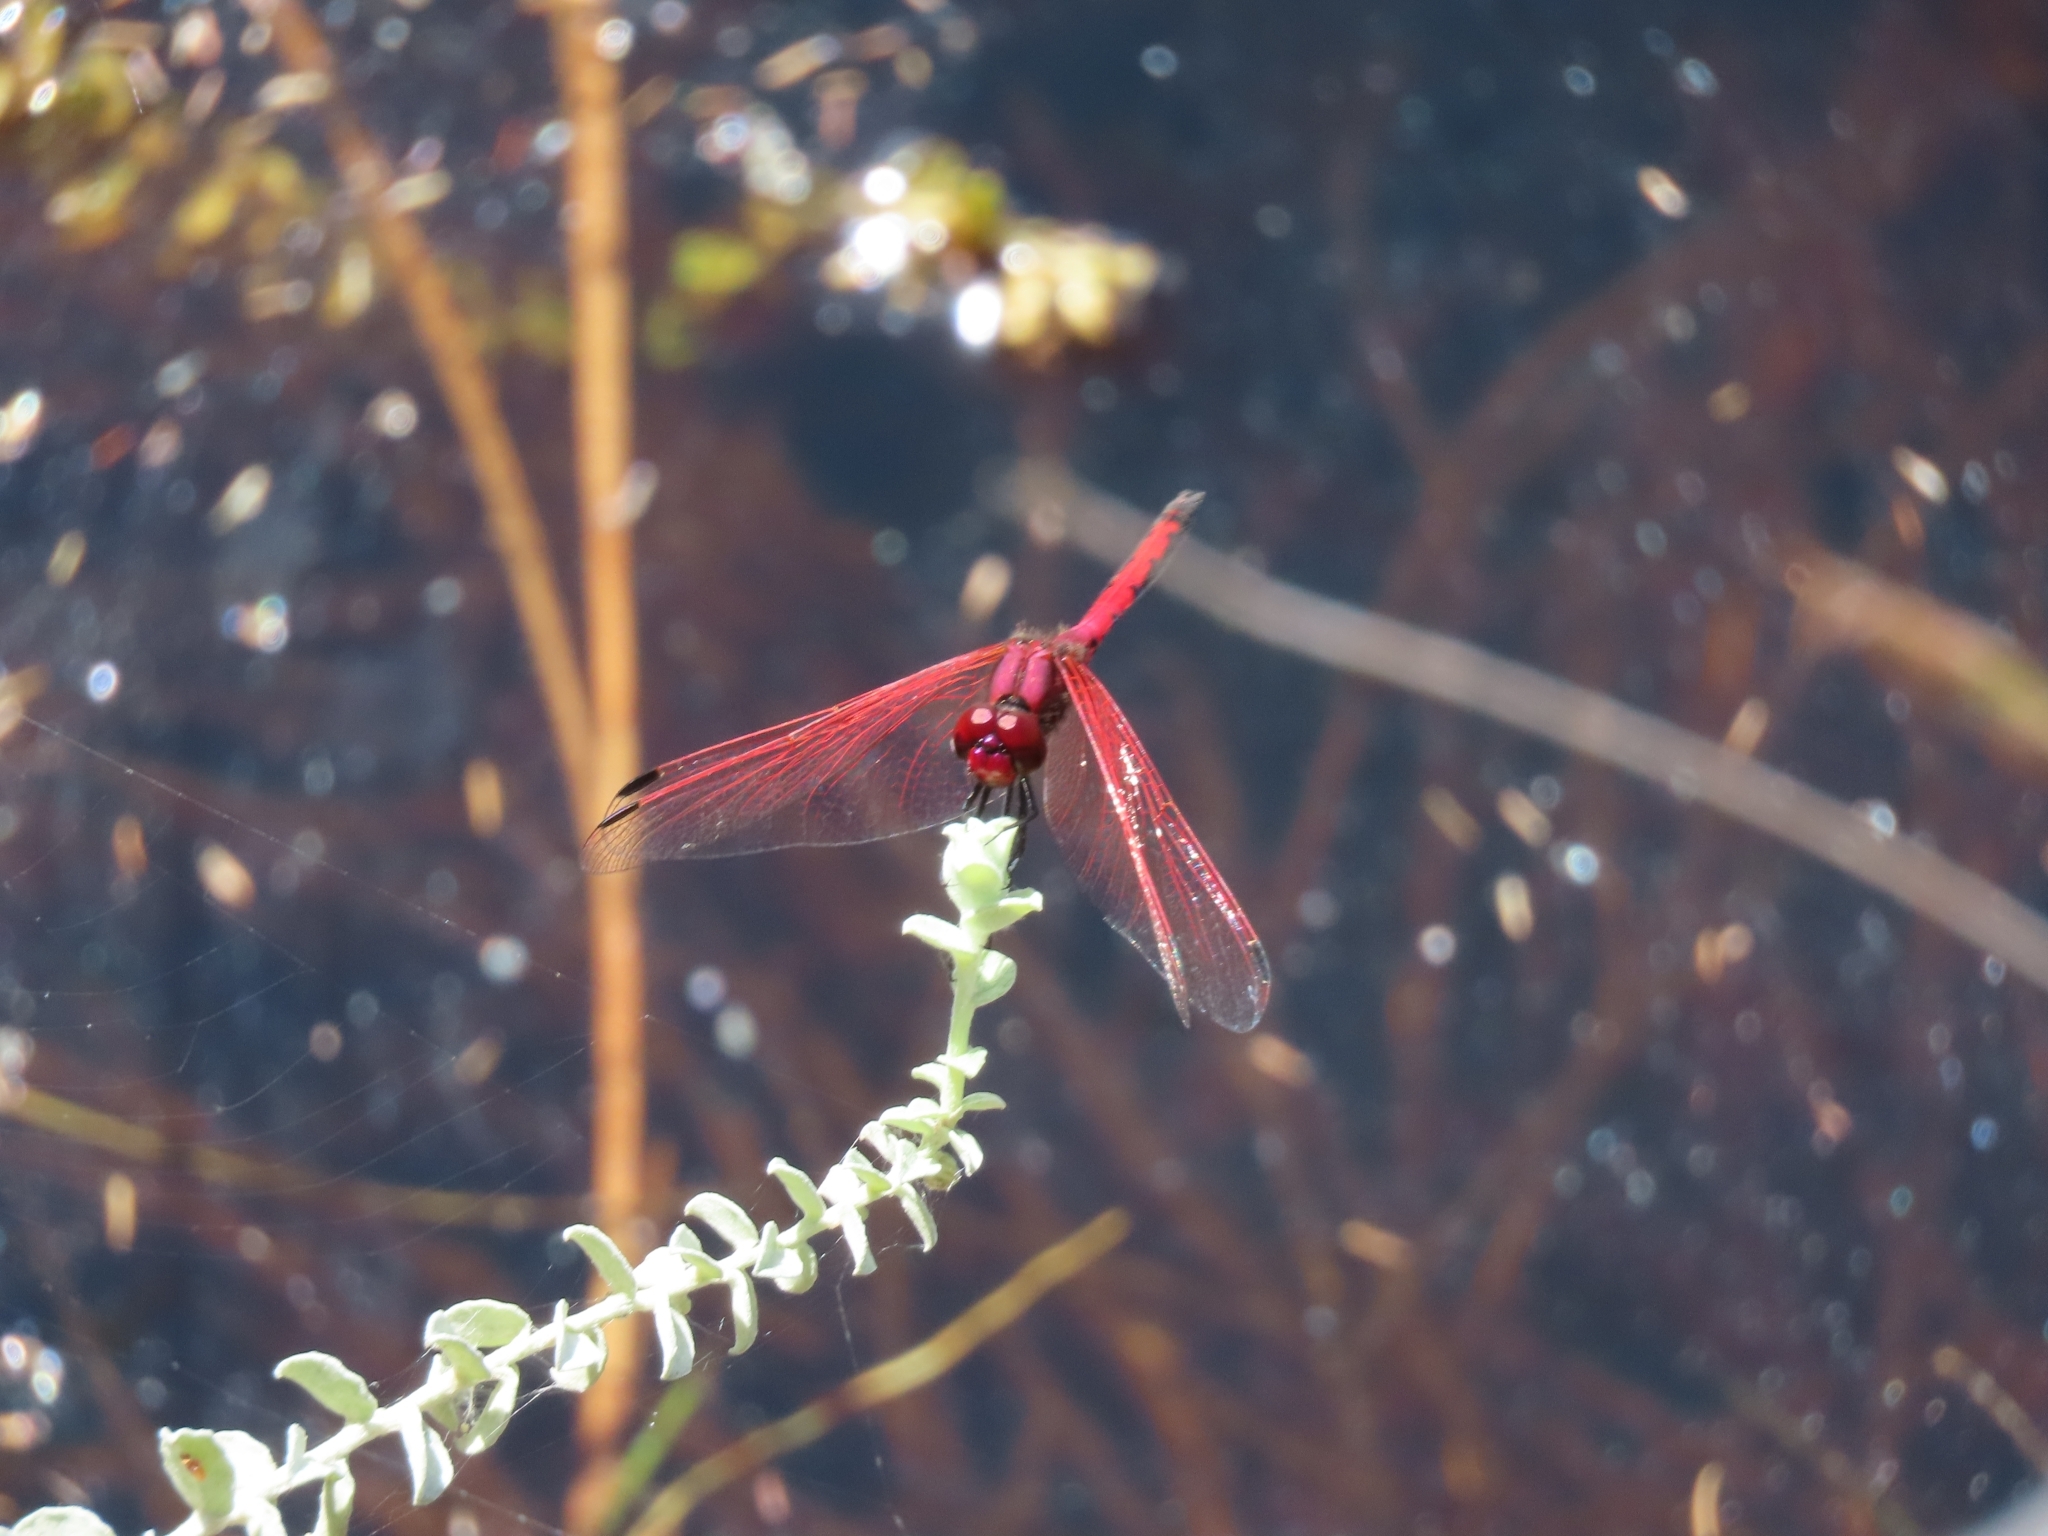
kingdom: Animalia
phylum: Arthropoda
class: Insecta
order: Odonata
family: Libellulidae
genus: Trithemis
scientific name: Trithemis arteriosa
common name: Red-veined dropwing
